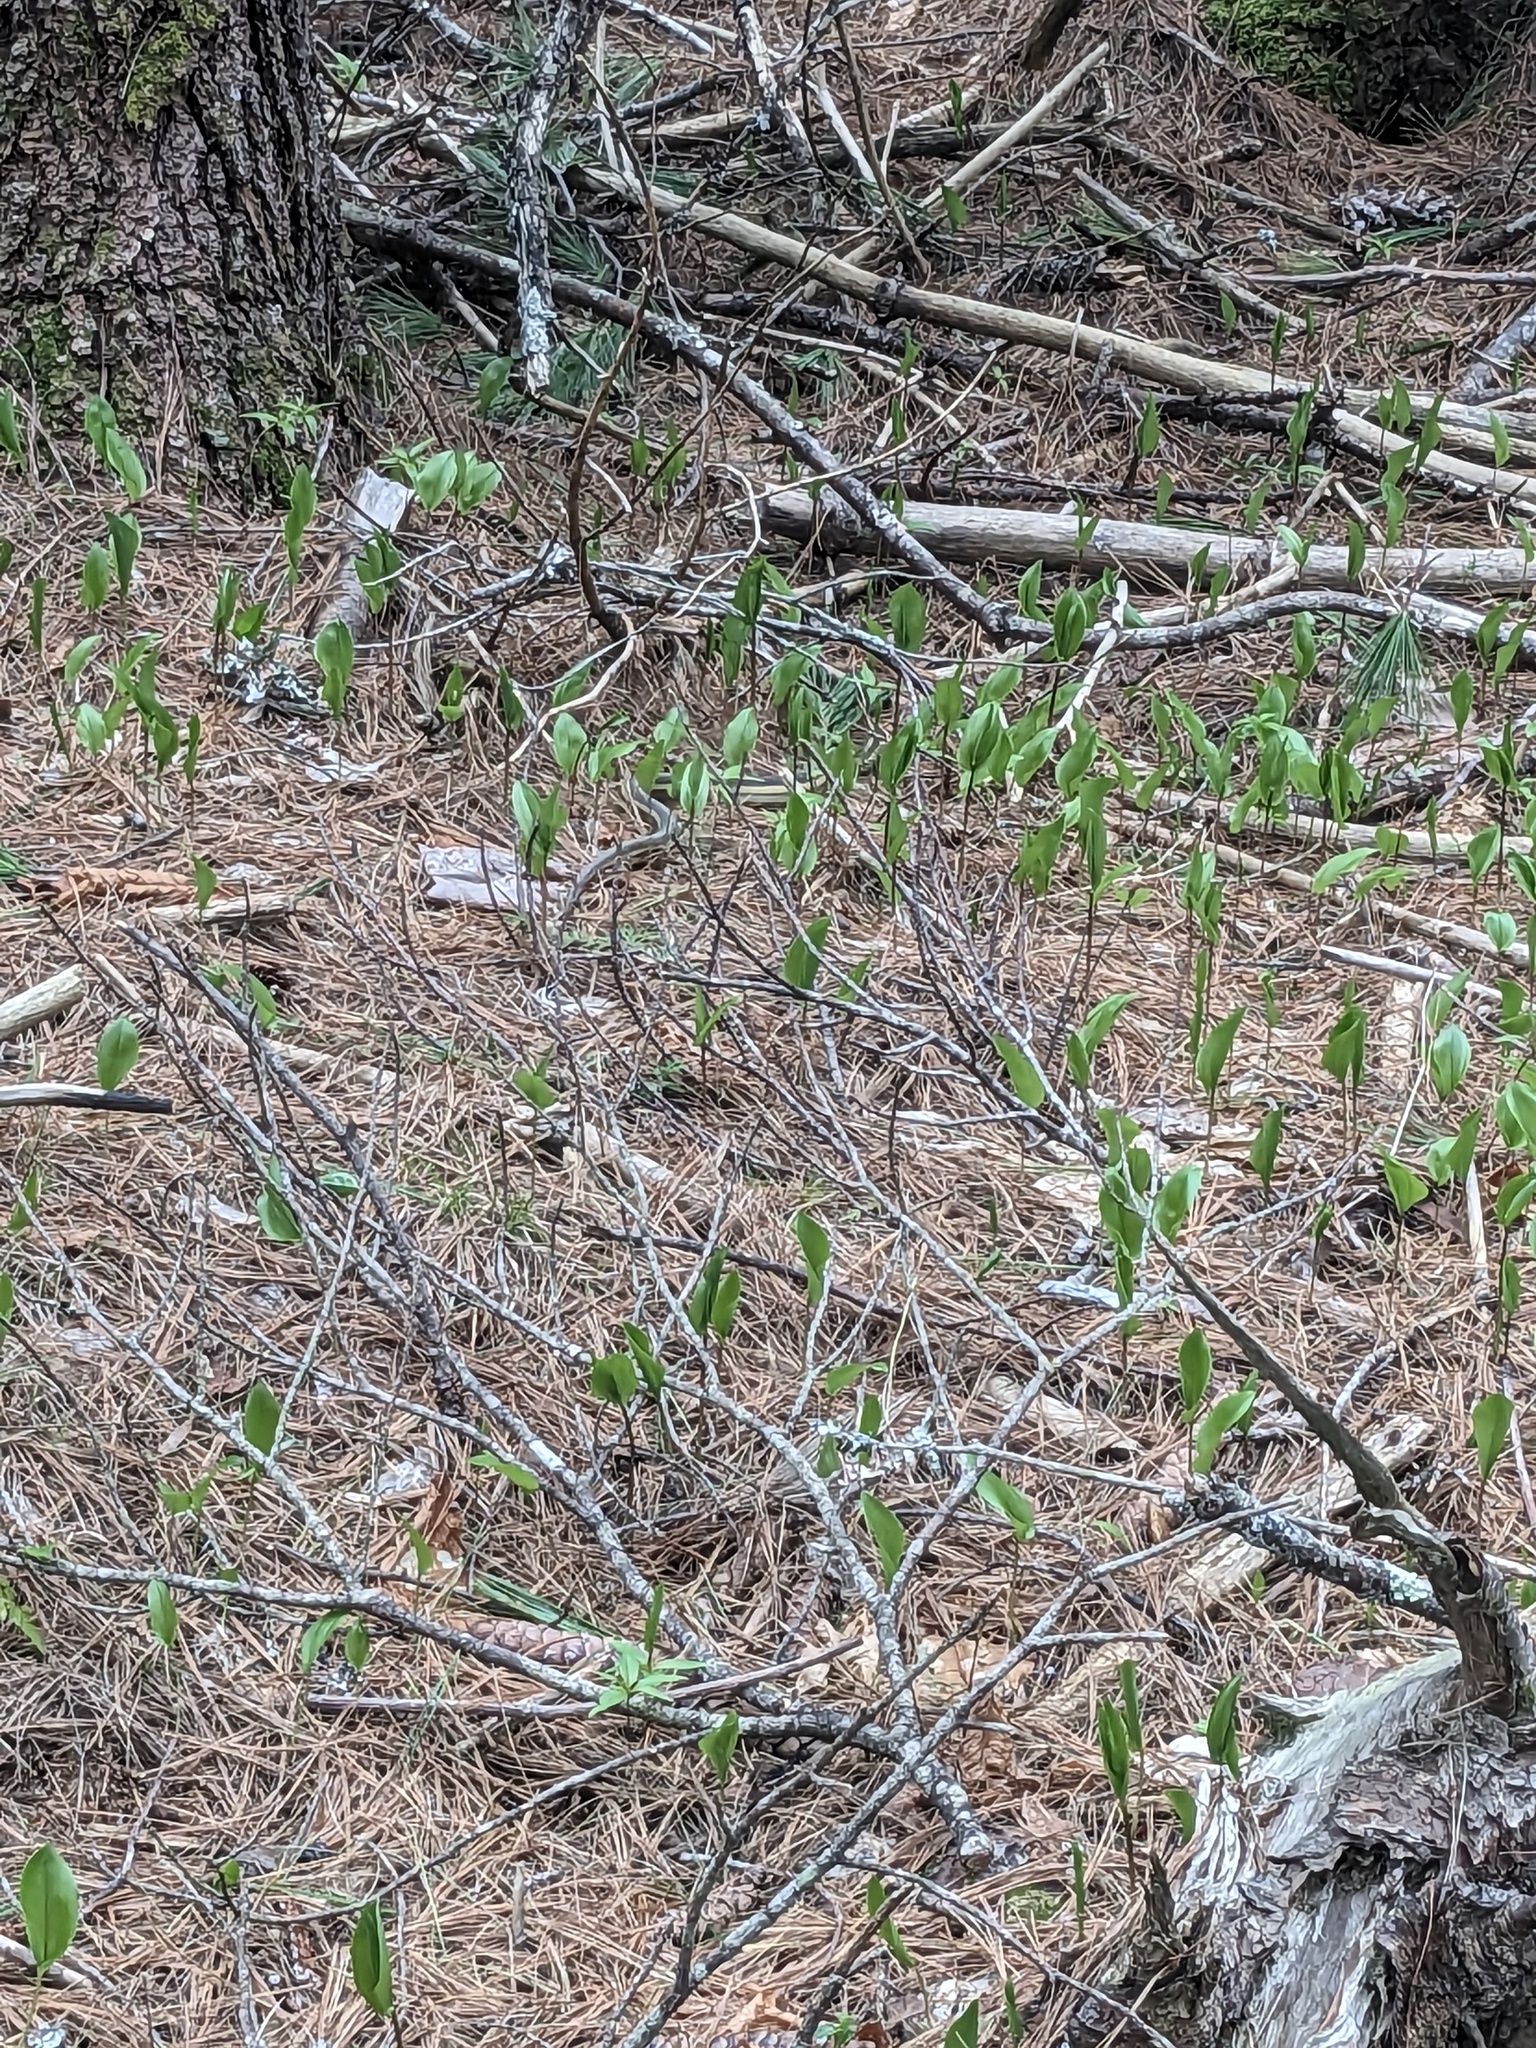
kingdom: Animalia
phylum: Chordata
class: Squamata
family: Colubridae
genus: Thamnophis
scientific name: Thamnophis sirtalis
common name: Common garter snake
